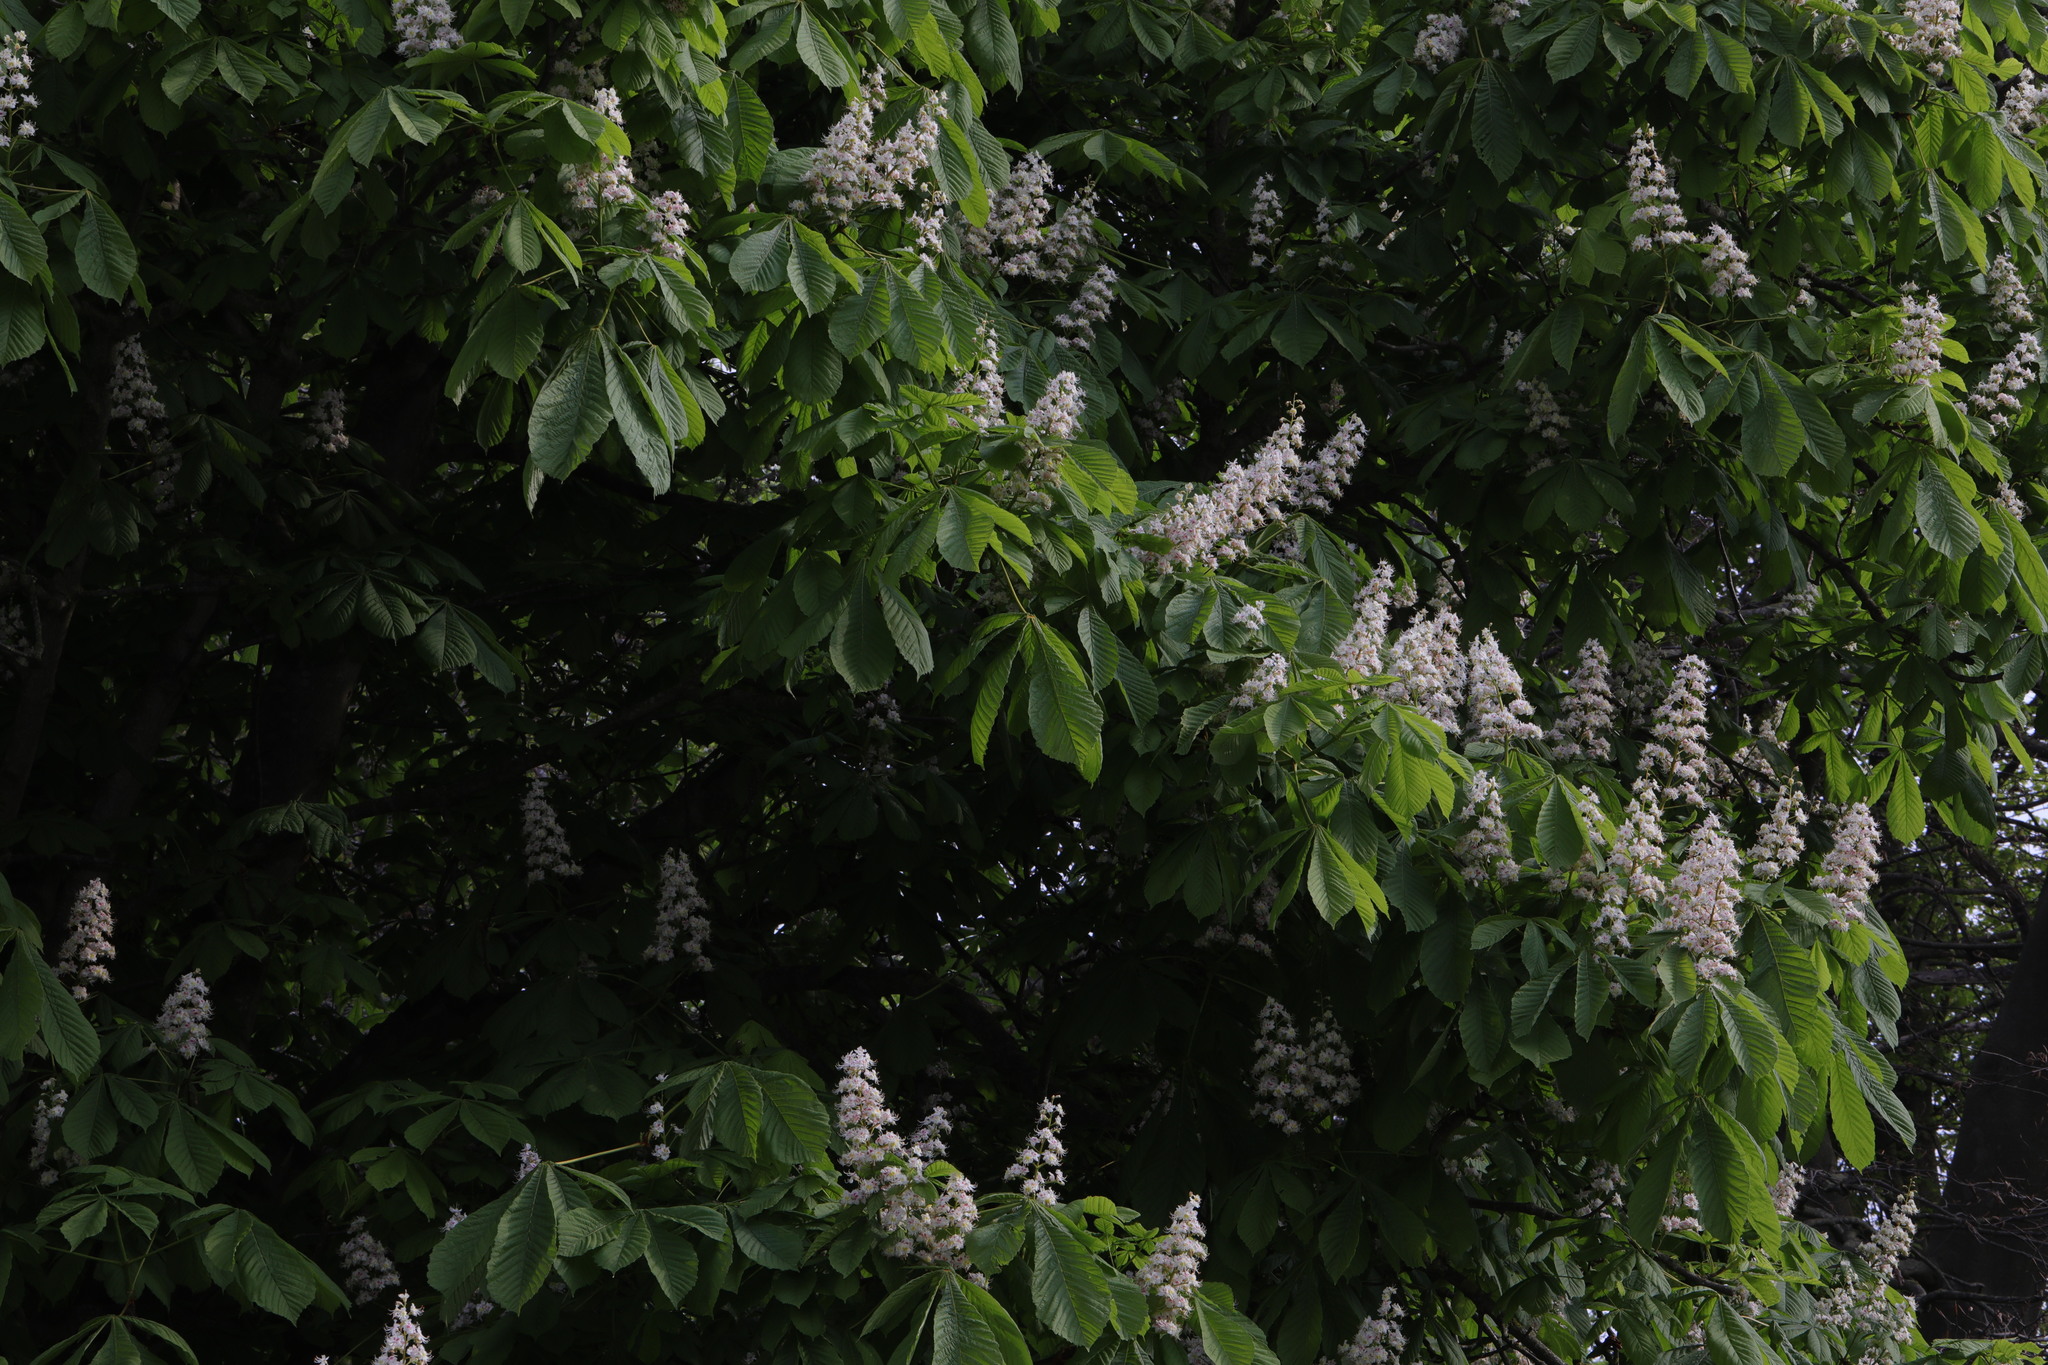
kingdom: Plantae
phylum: Tracheophyta
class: Magnoliopsida
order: Sapindales
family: Sapindaceae
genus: Aesculus
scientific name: Aesculus hippocastanum
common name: Horse-chestnut
